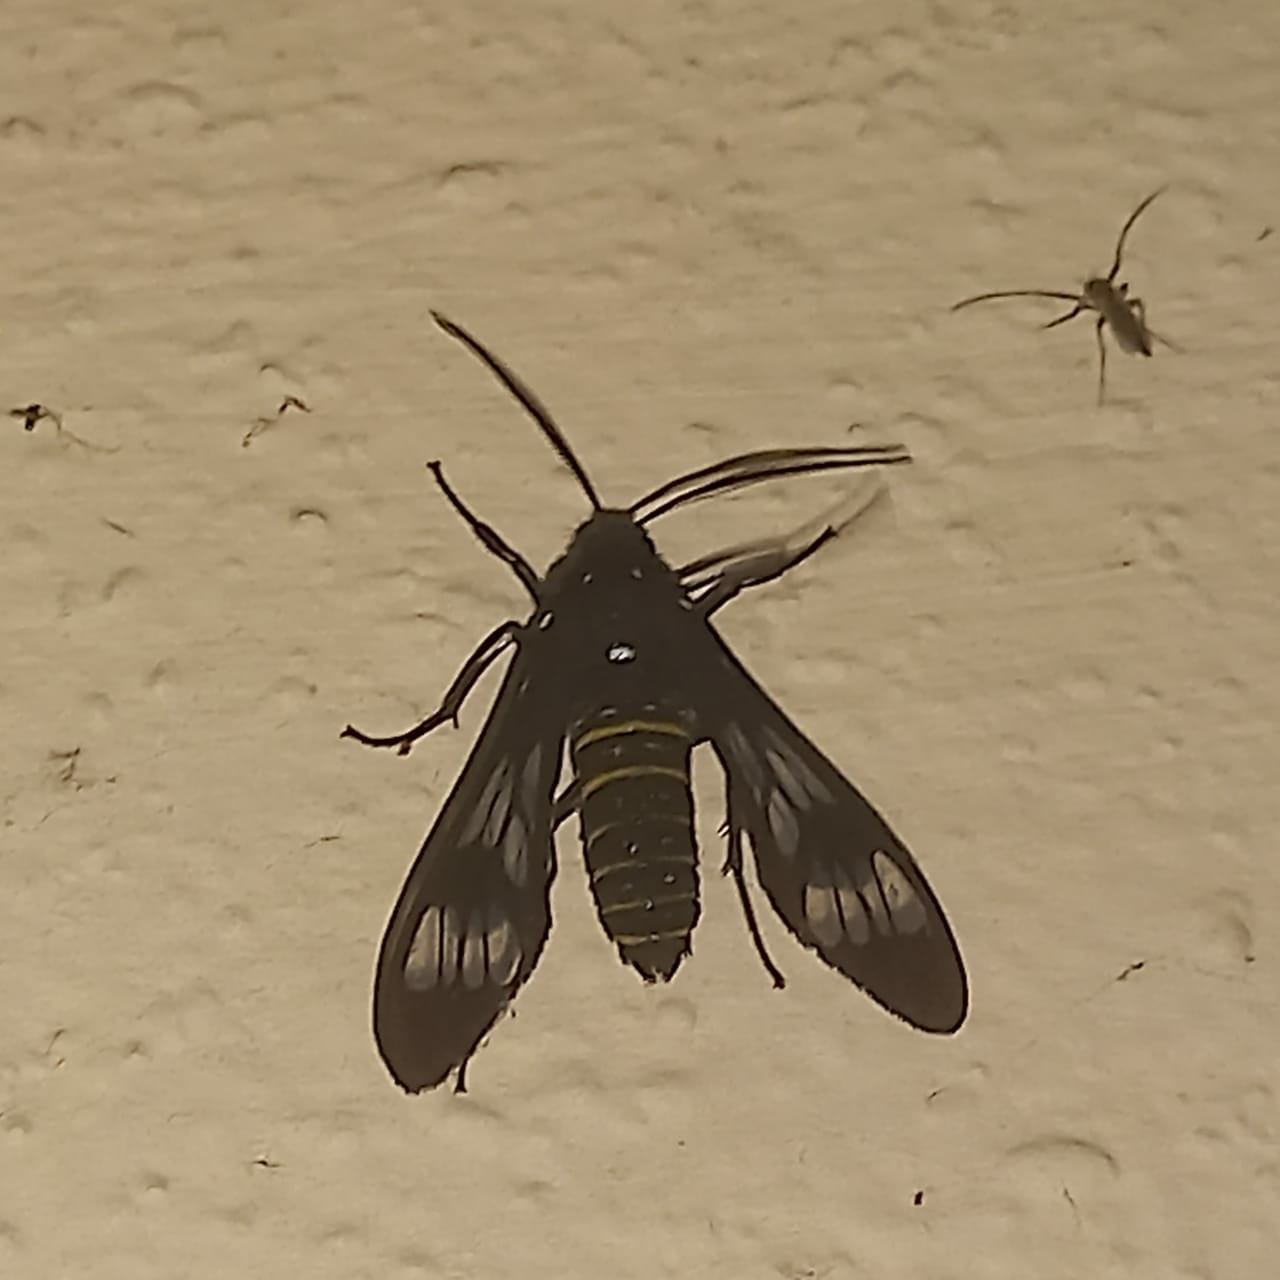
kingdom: Animalia
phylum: Arthropoda
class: Insecta
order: Lepidoptera
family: Erebidae
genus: Phaenarete
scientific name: Phaenarete diana
